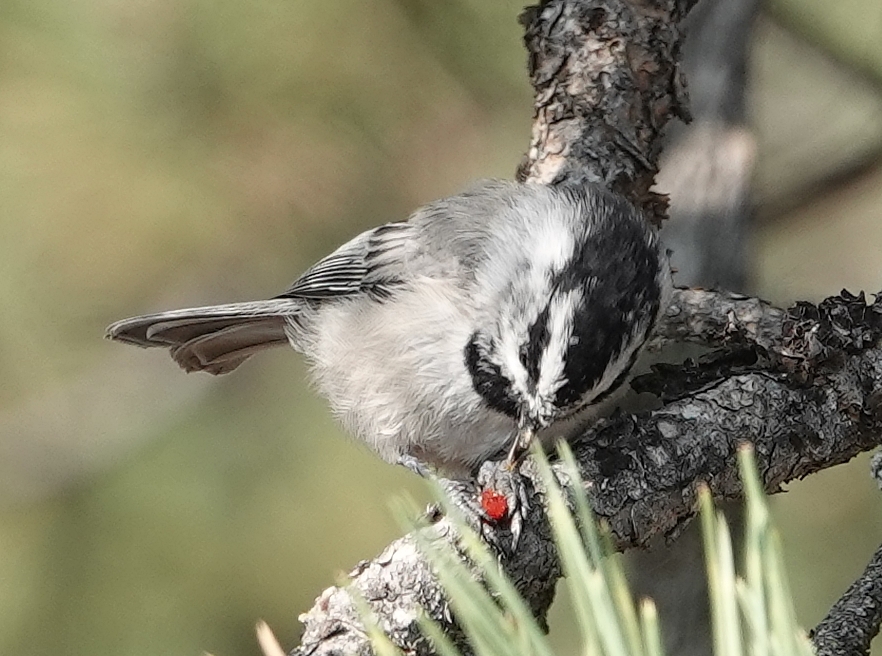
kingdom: Animalia
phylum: Chordata
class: Aves
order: Passeriformes
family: Paridae
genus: Poecile
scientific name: Poecile gambeli
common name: Mountain chickadee
